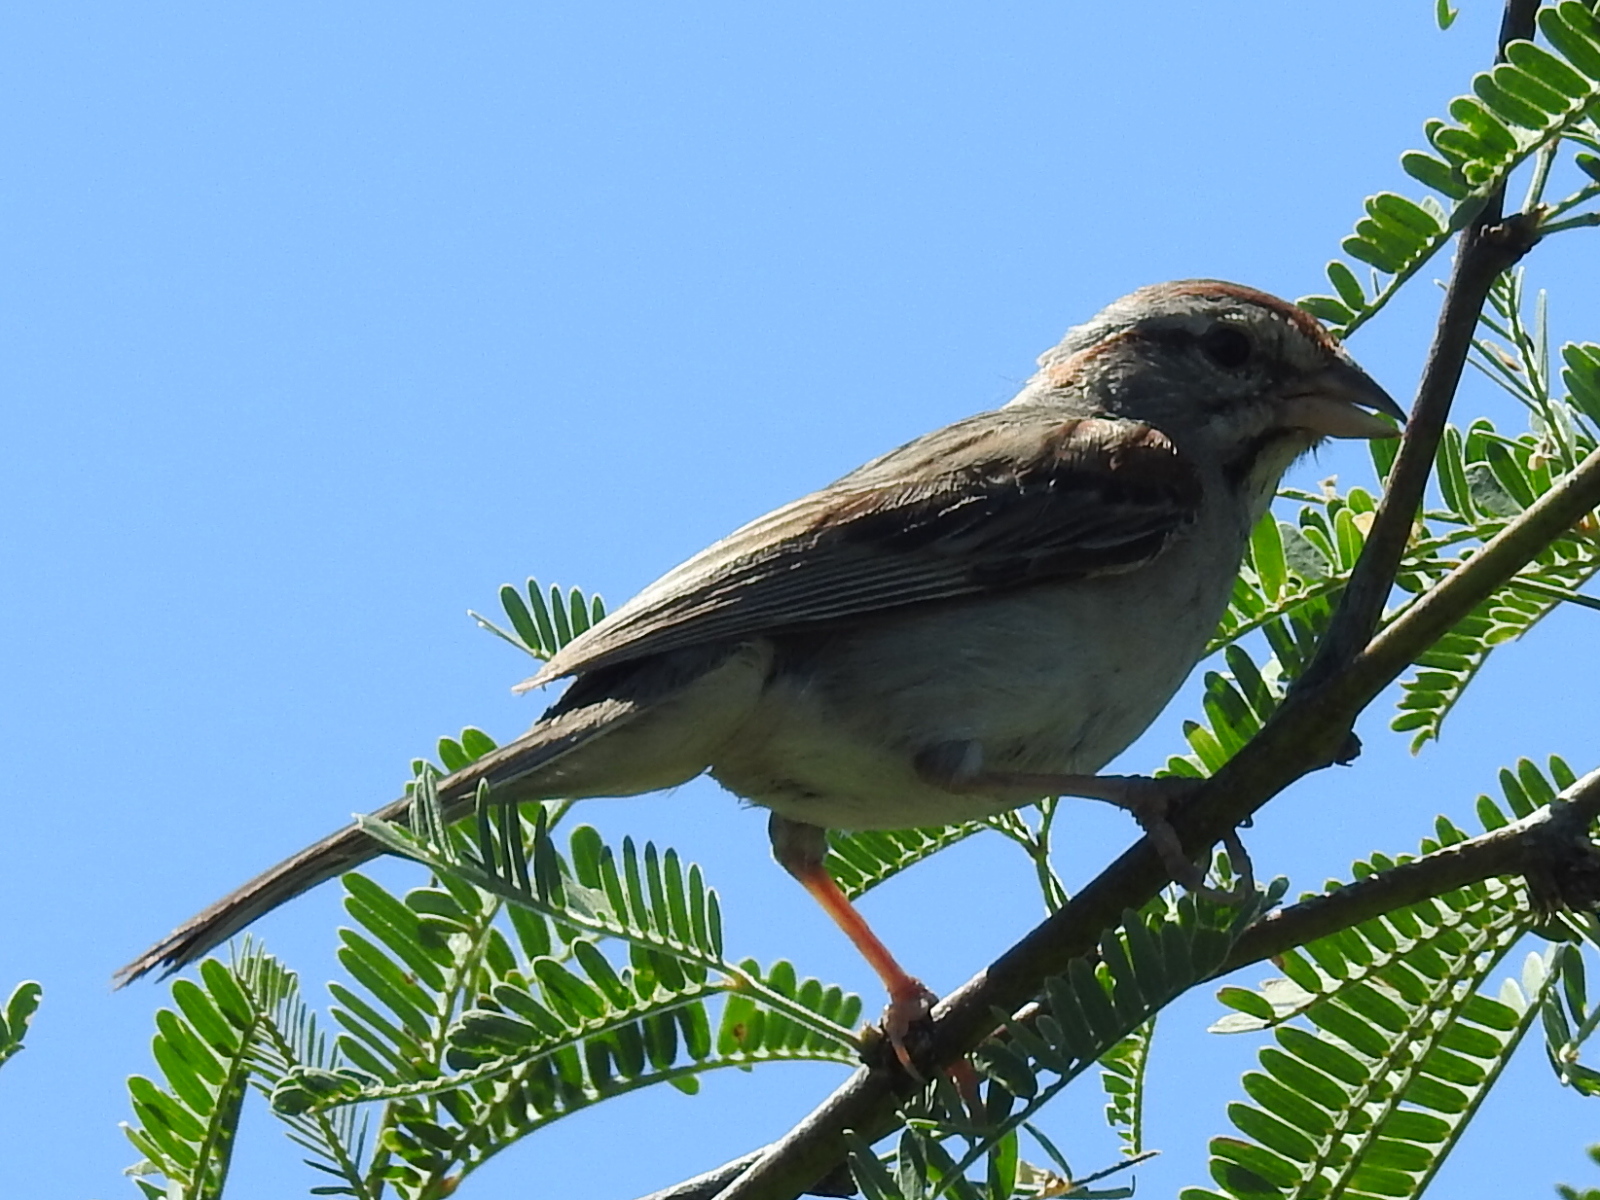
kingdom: Animalia
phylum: Chordata
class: Aves
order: Passeriformes
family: Passerellidae
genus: Peucaea
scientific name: Peucaea carpalis
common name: Rufous-winged sparrow
